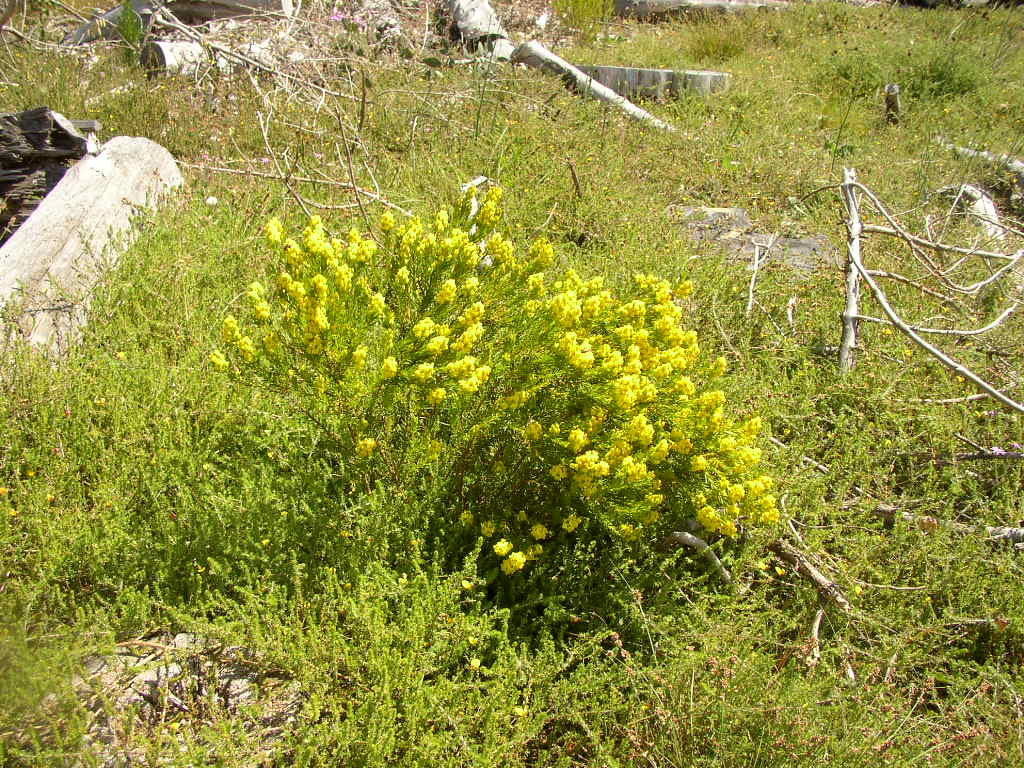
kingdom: Plantae
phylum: Tracheophyta
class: Magnoliopsida
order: Fabales
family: Fabaceae
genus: Aspalathus
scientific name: Aspalathus callosa
